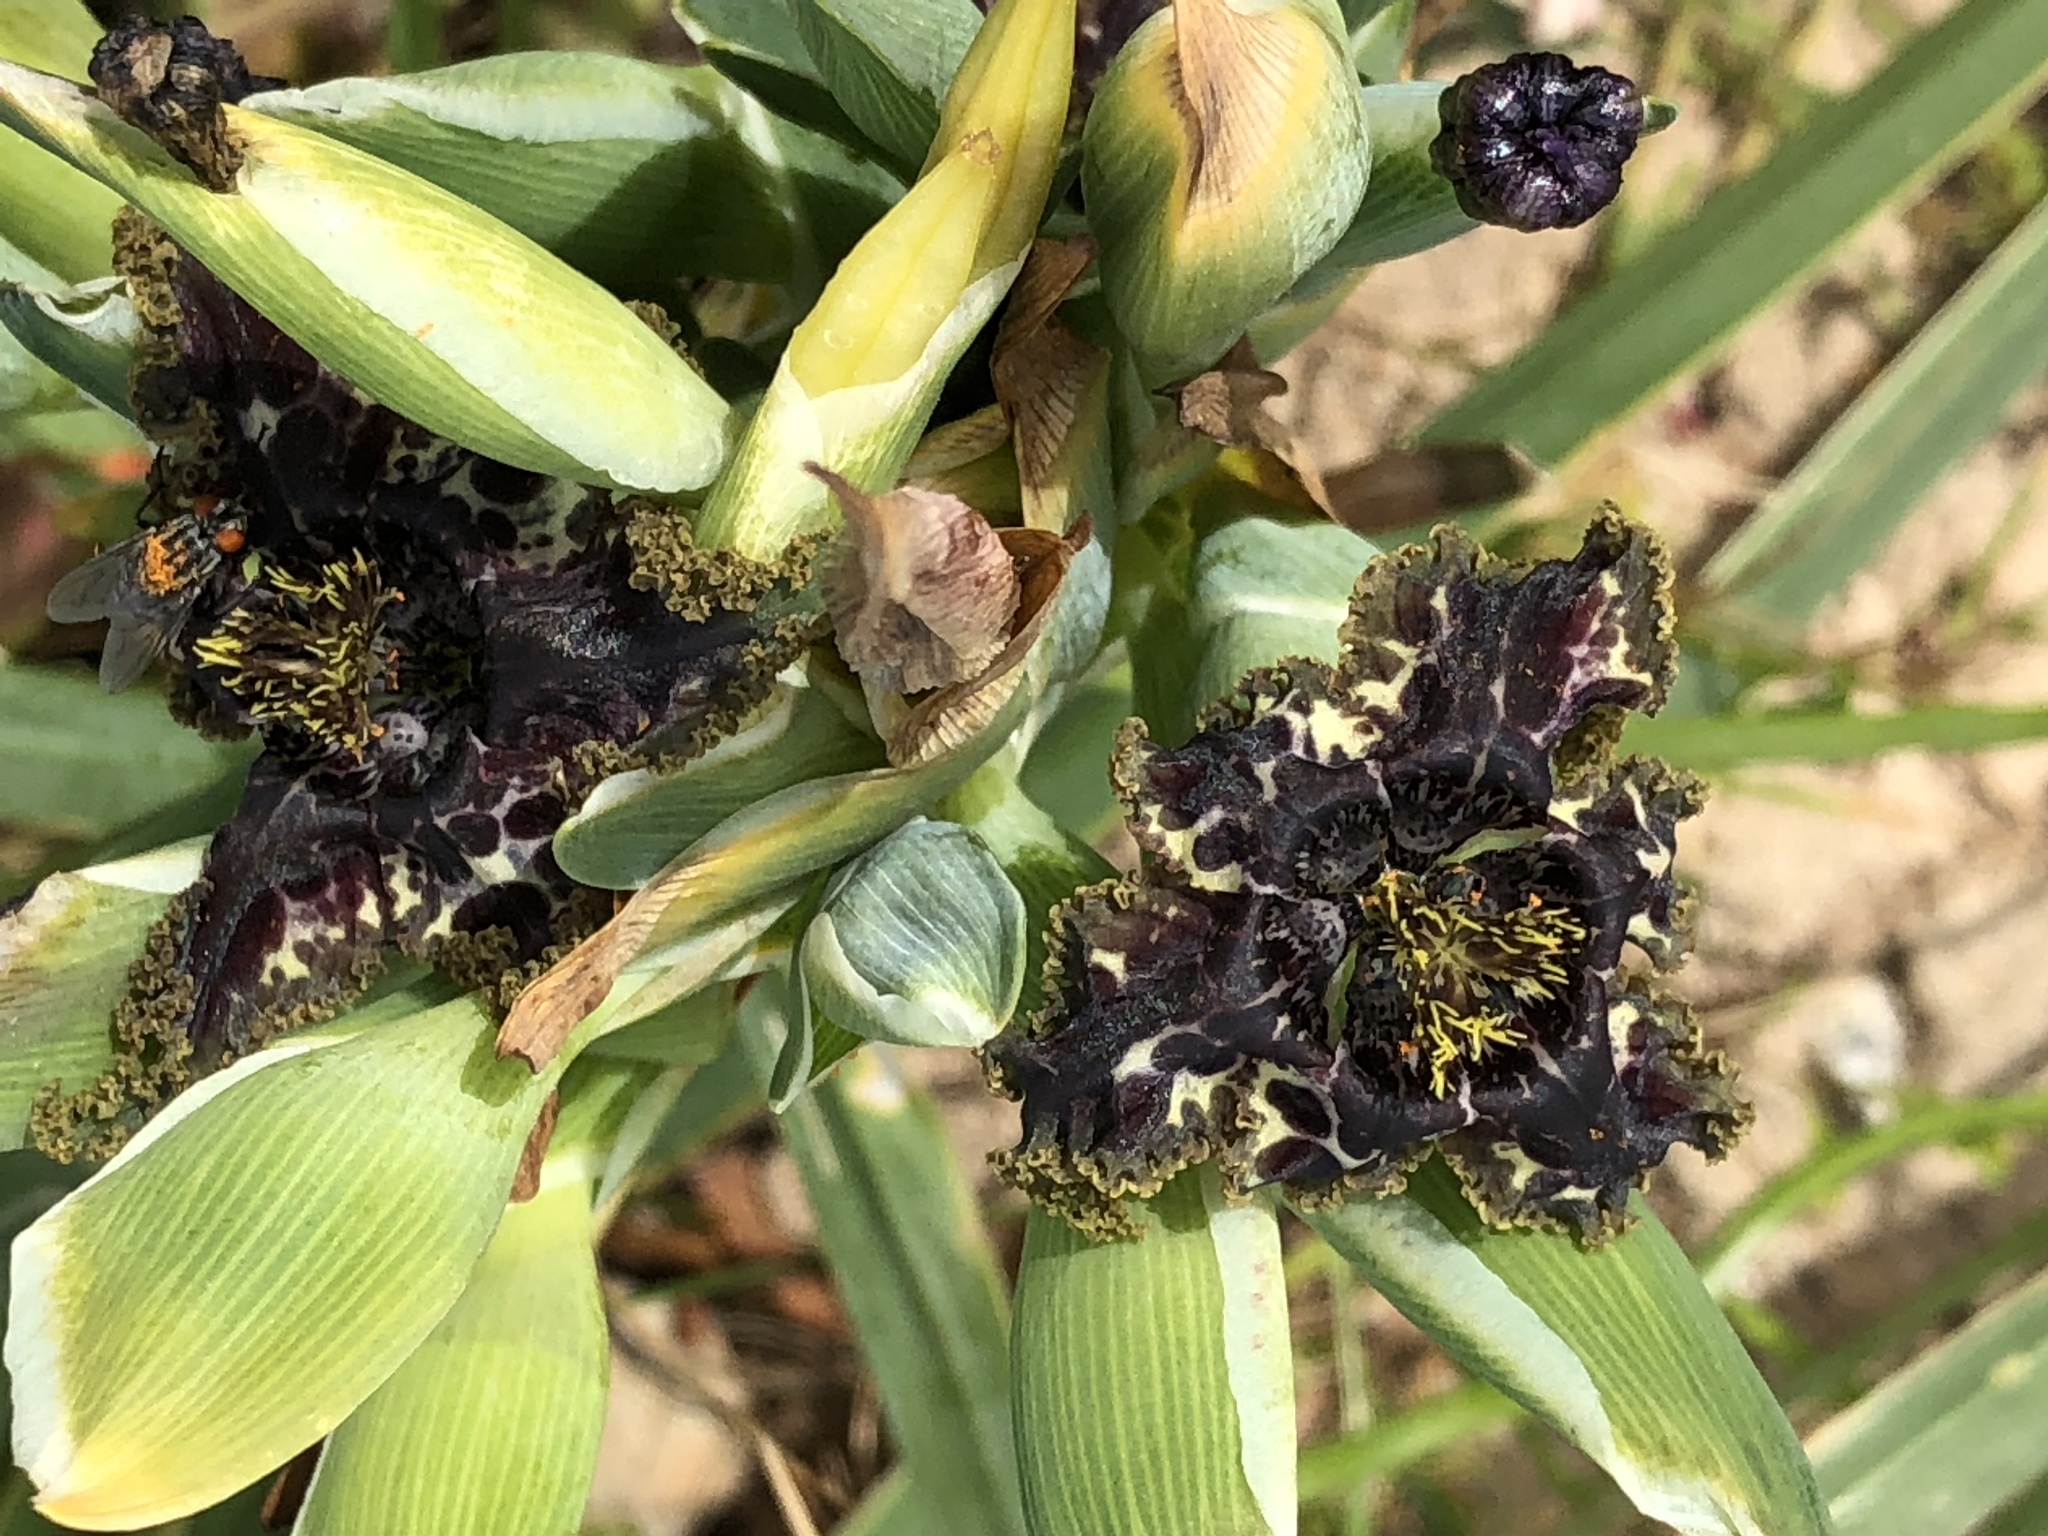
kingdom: Plantae
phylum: Tracheophyta
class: Liliopsida
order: Asparagales
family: Iridaceae
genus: Ferraria
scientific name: Ferraria crispa
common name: Black-flag
